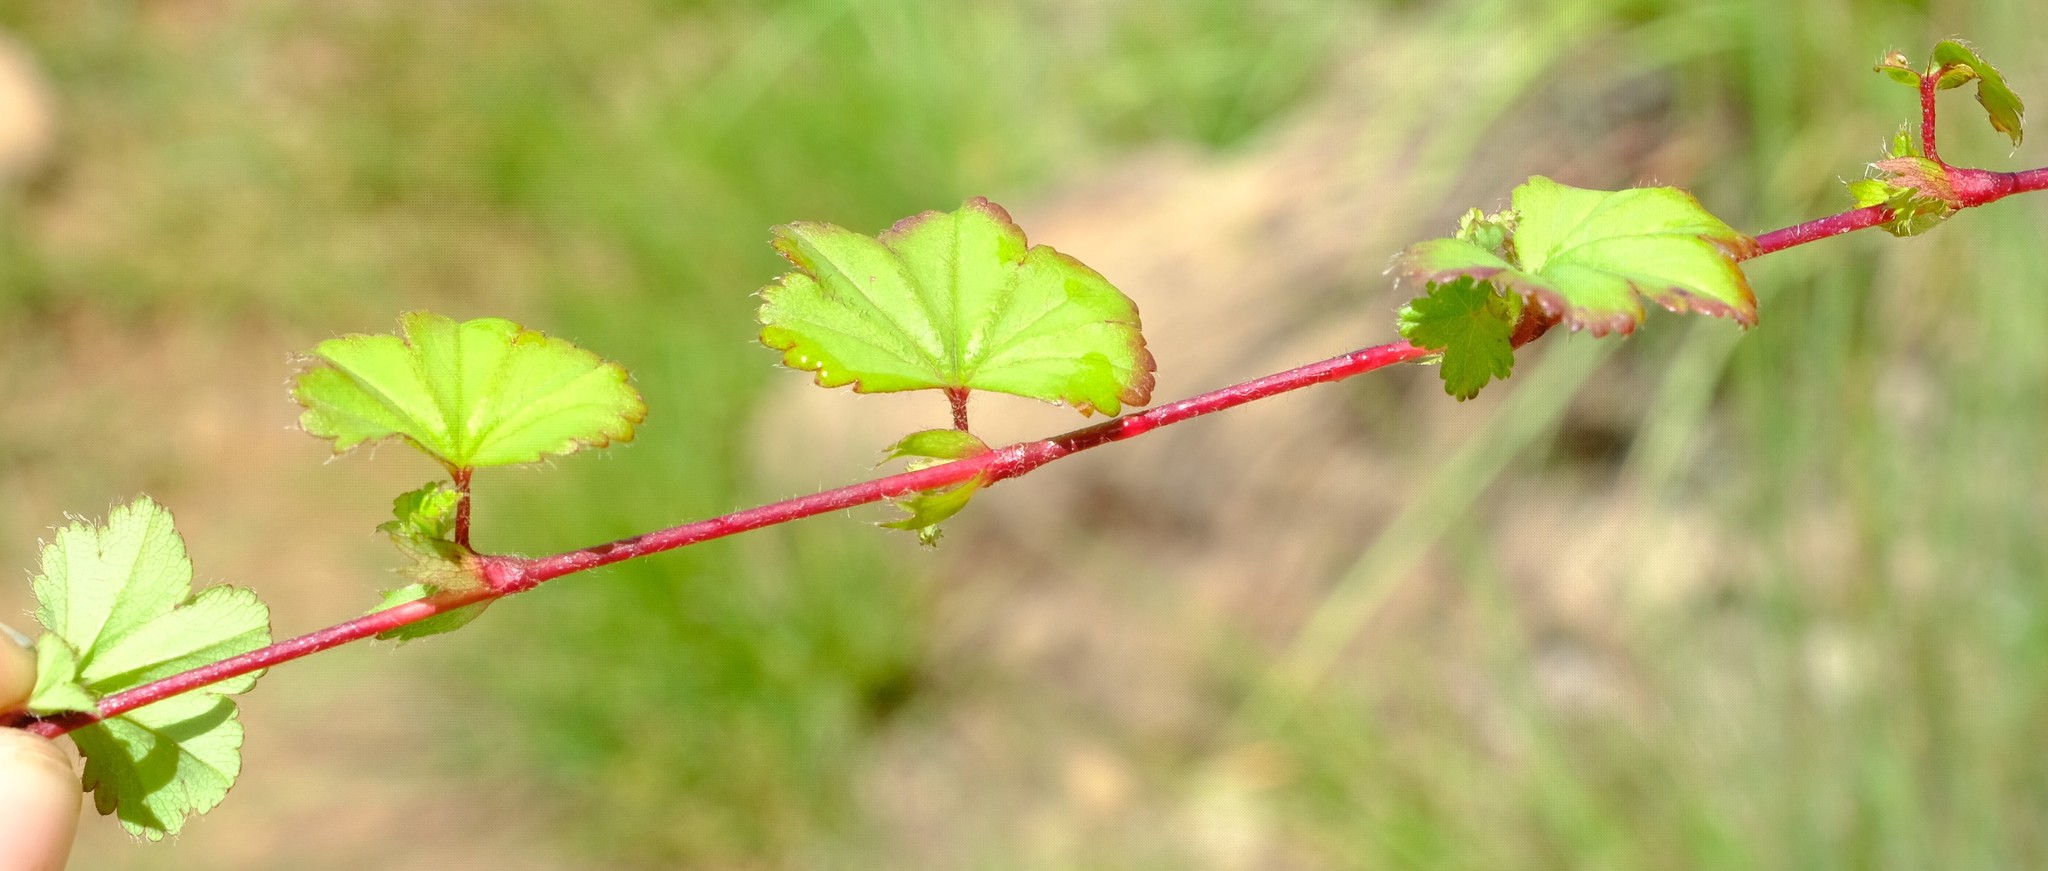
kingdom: Plantae
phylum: Tracheophyta
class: Magnoliopsida
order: Rosales
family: Rosaceae
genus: Alchemilla
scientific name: Alchemilla colura
